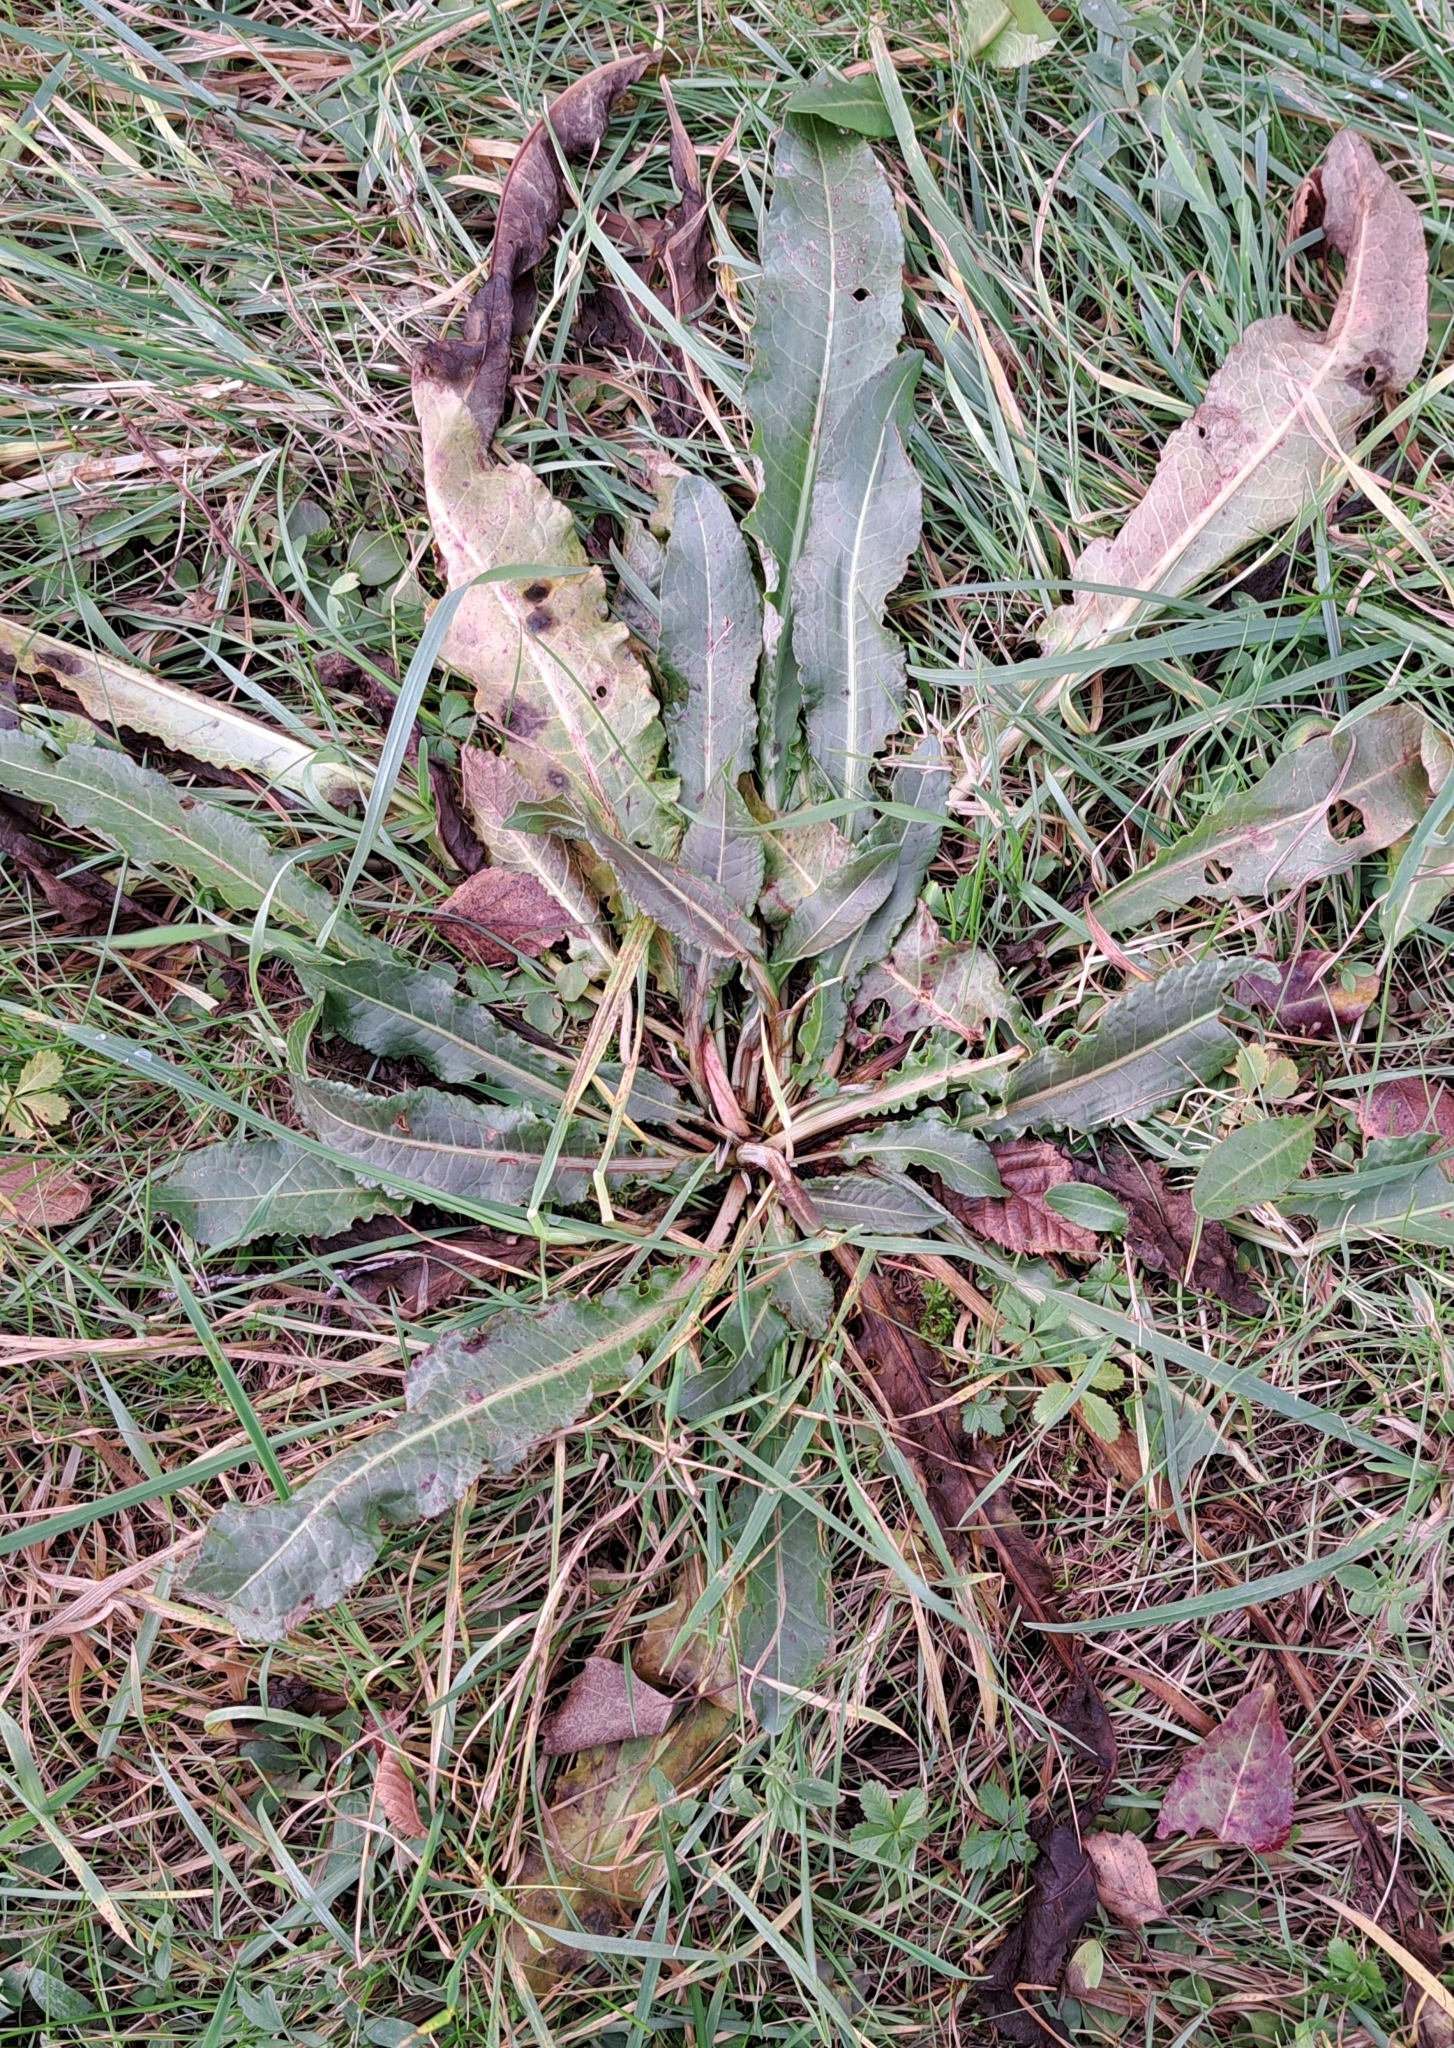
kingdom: Plantae
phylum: Tracheophyta
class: Magnoliopsida
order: Caryophyllales
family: Polygonaceae
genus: Rumex
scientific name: Rumex crispus
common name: Curled dock
